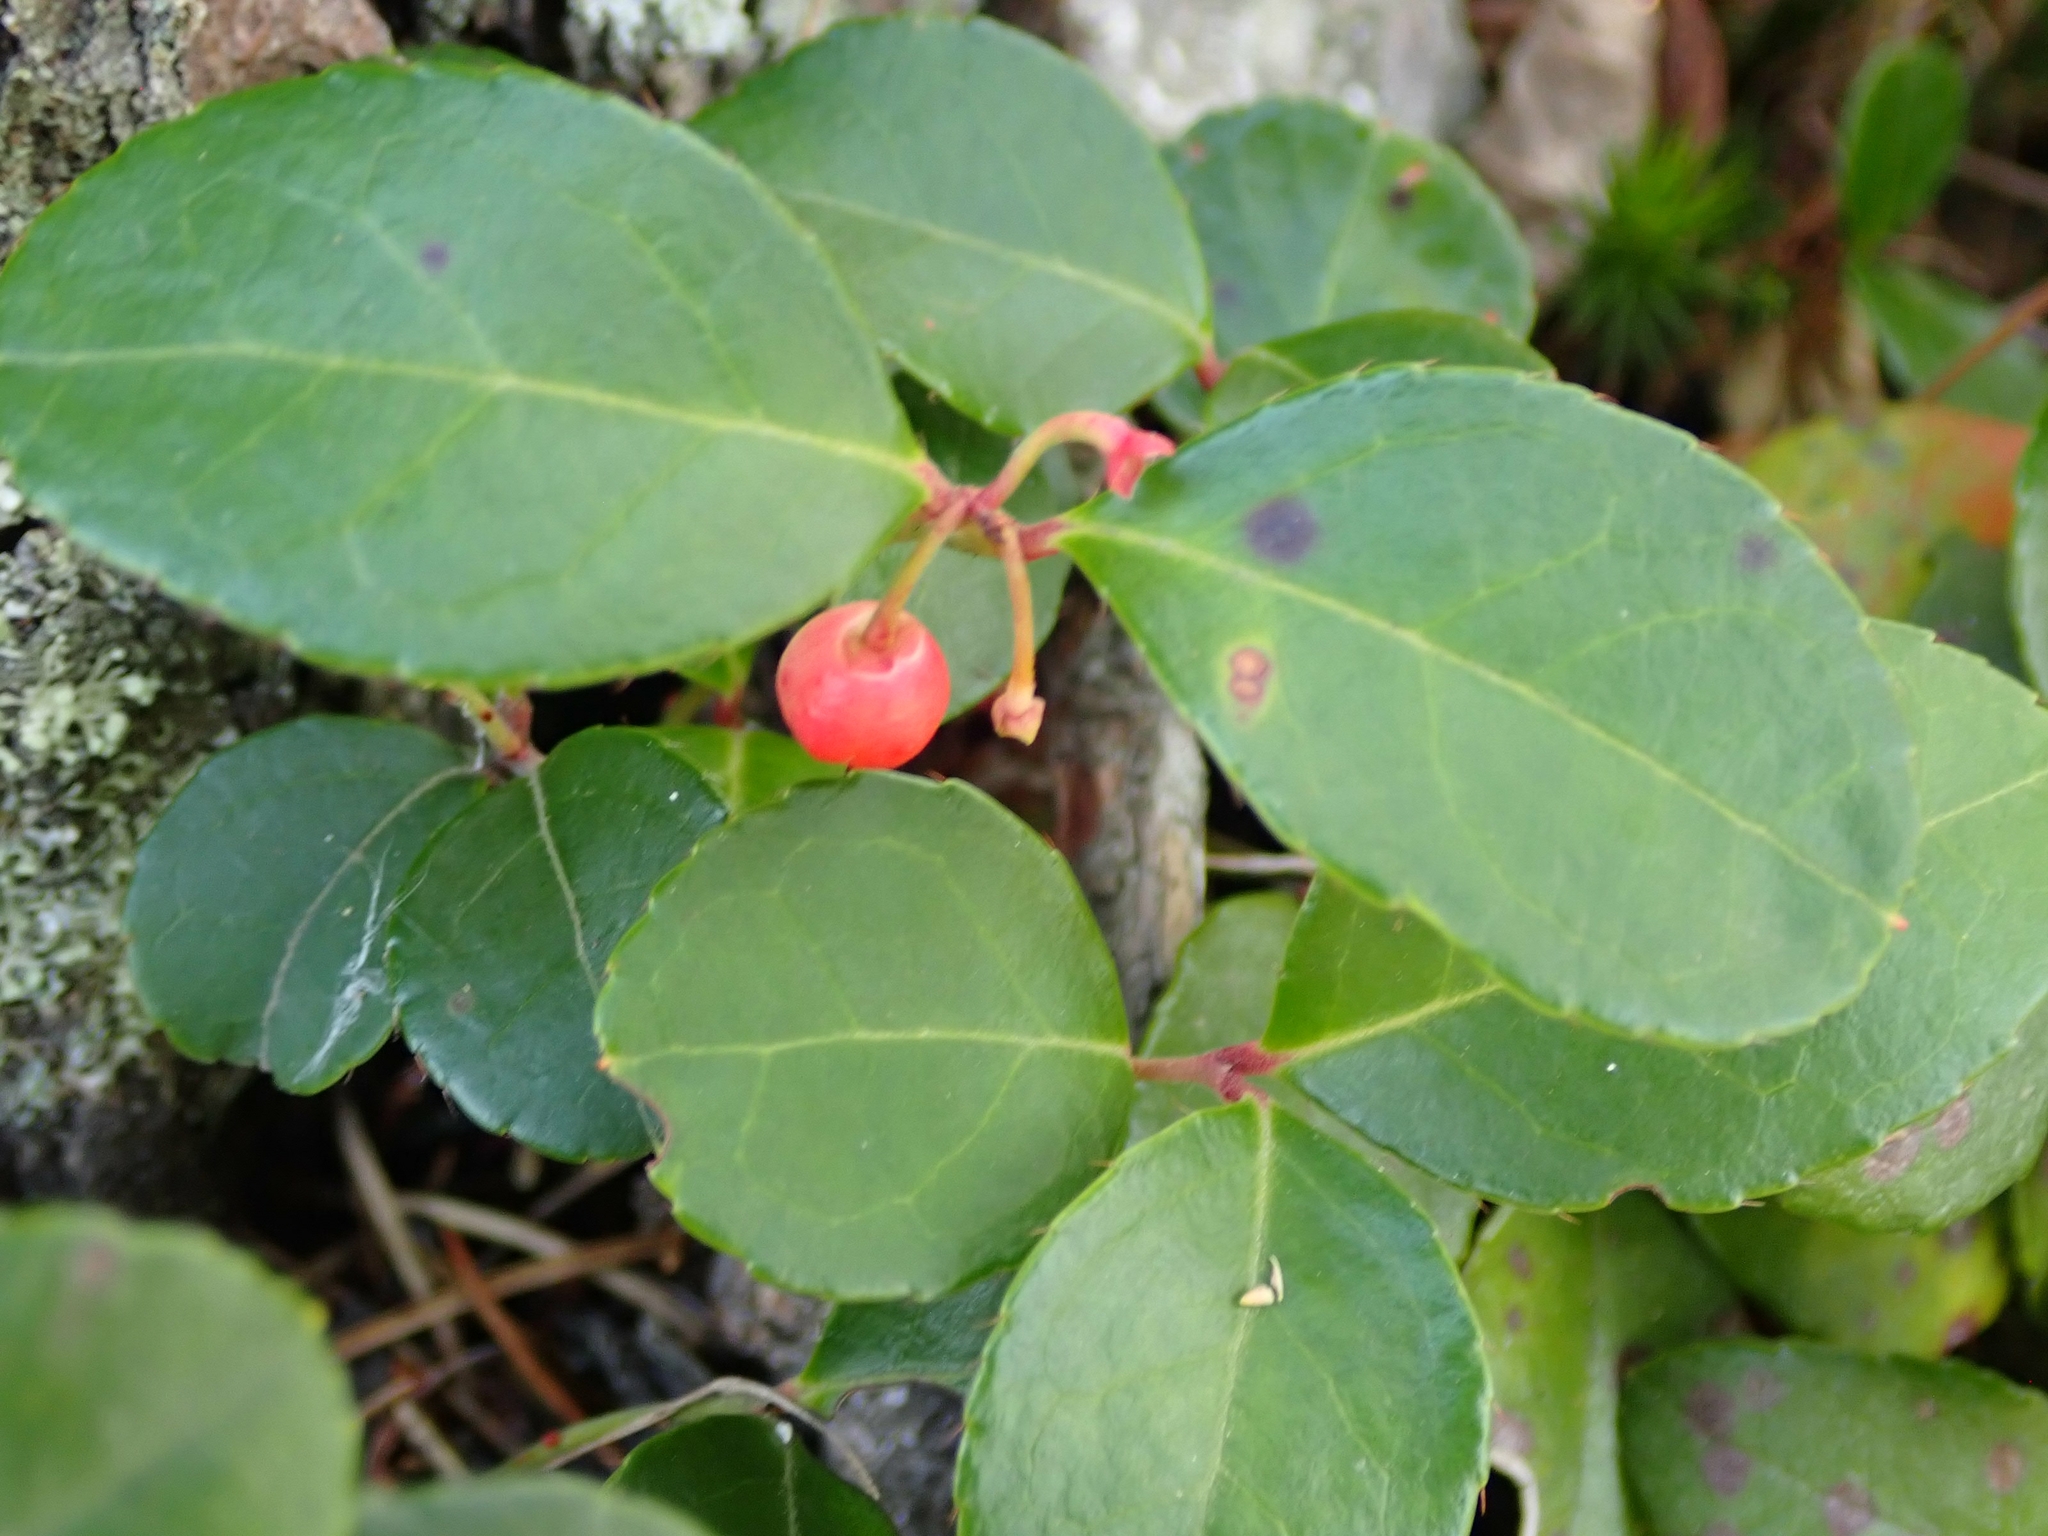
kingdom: Plantae
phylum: Tracheophyta
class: Magnoliopsida
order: Ericales
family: Ericaceae
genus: Gaultheria
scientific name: Gaultheria procumbens
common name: Checkerberry
